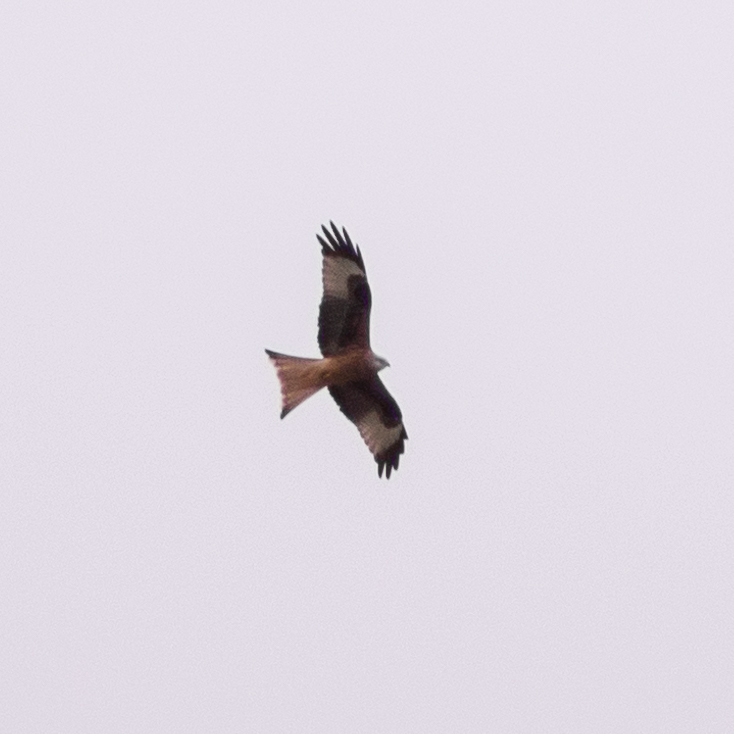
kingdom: Animalia
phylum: Chordata
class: Aves
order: Accipitriformes
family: Accipitridae
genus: Milvus
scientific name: Milvus milvus
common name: Red kite
